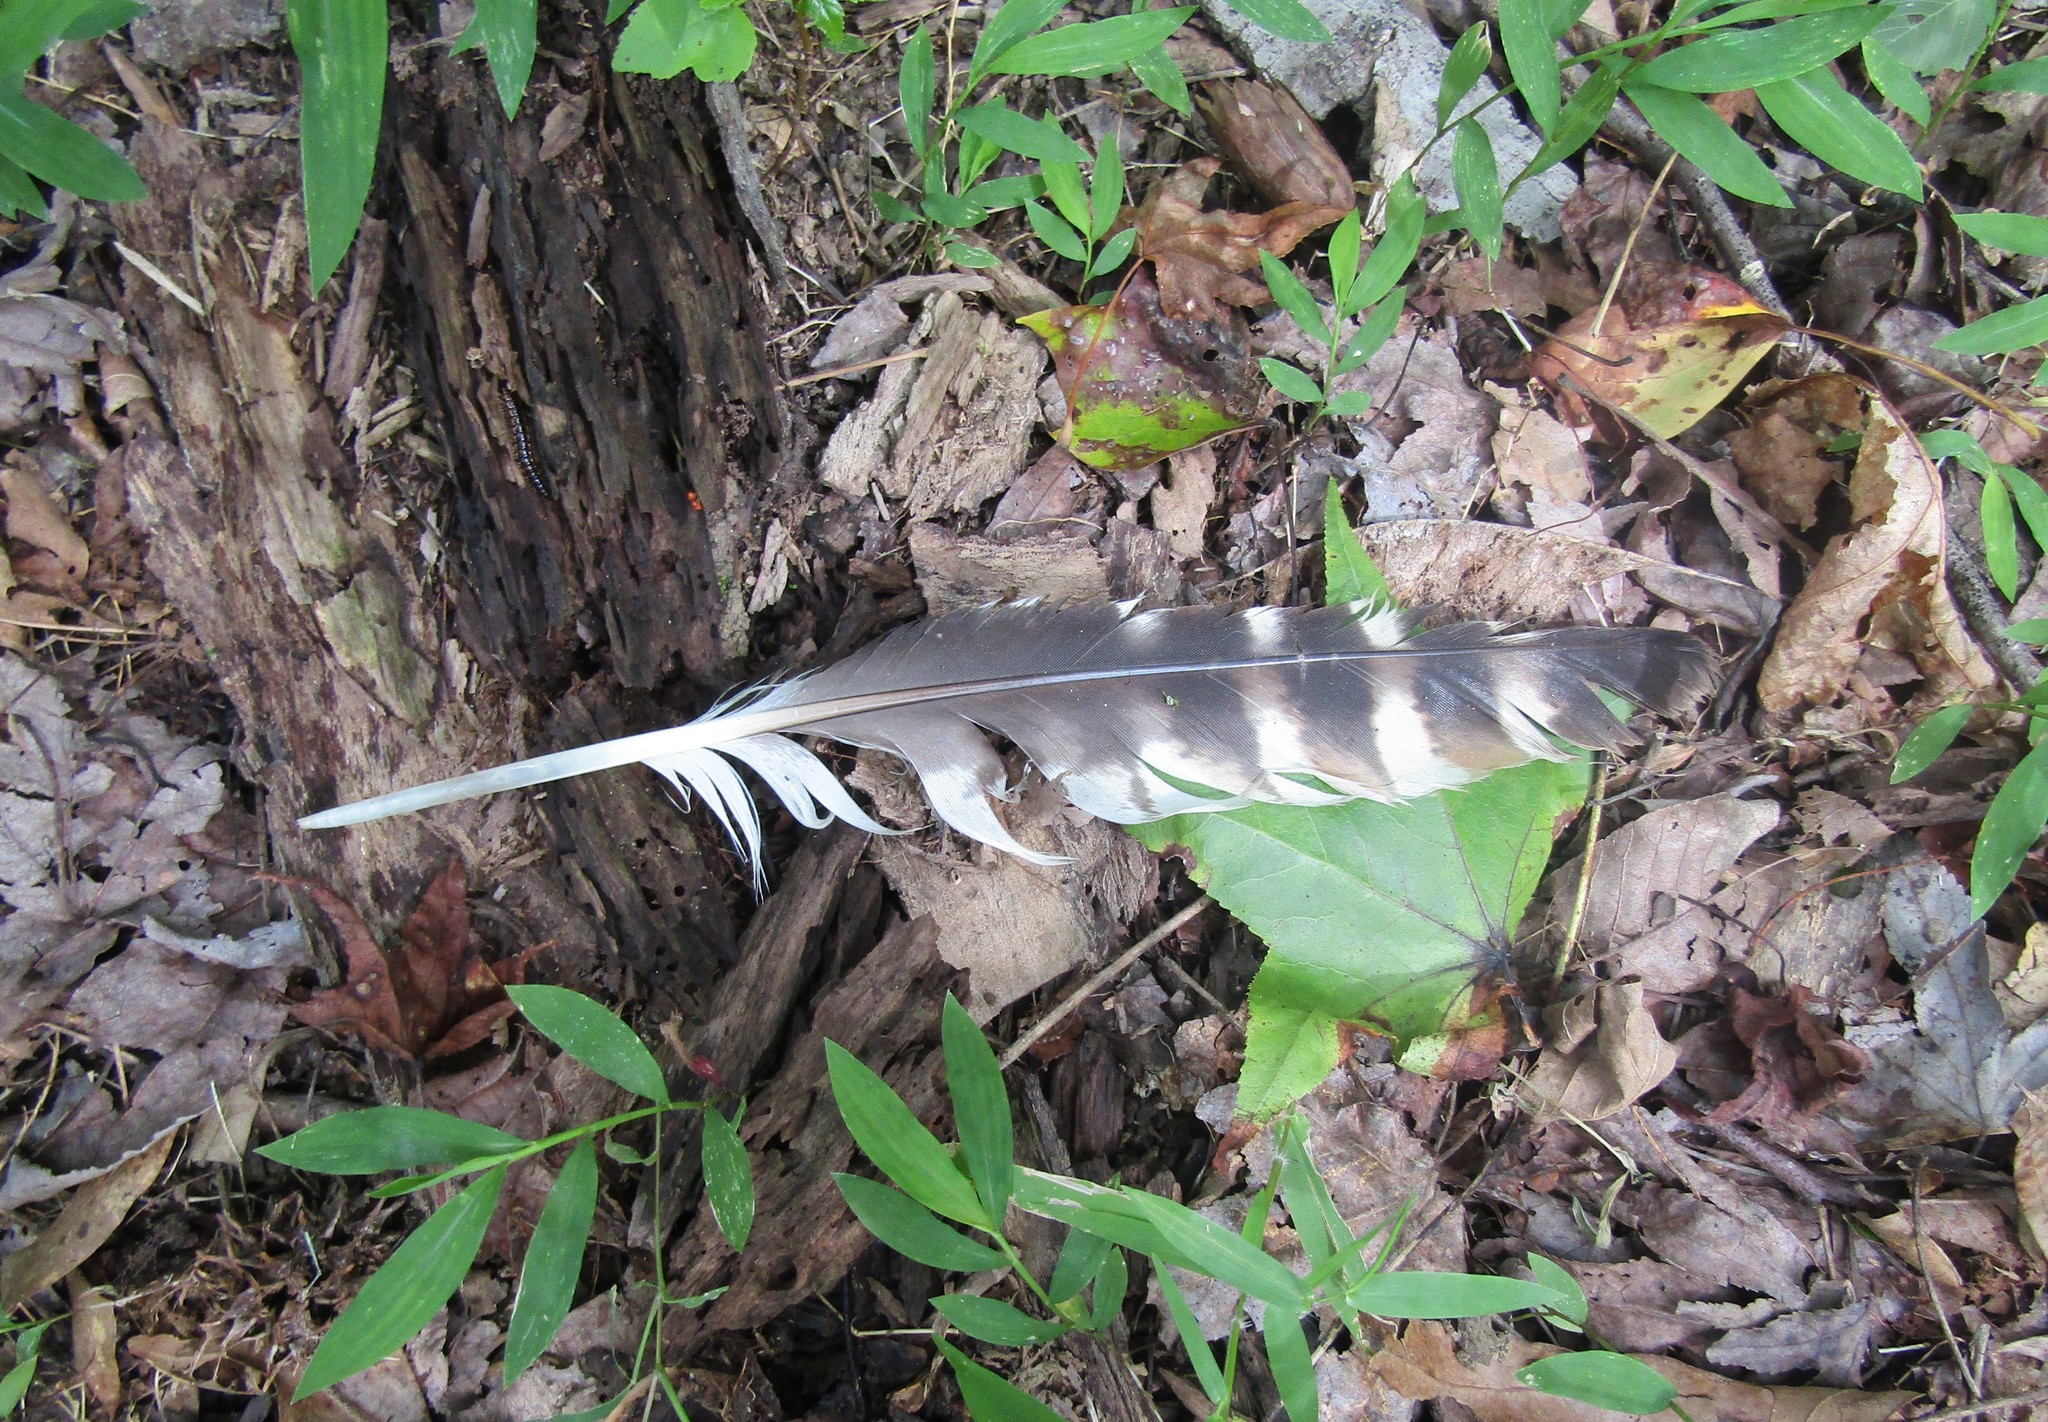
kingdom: Animalia
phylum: Chordata
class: Aves
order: Accipitriformes
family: Accipitridae
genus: Buteo
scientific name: Buteo lineatus
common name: Red-shouldered hawk
